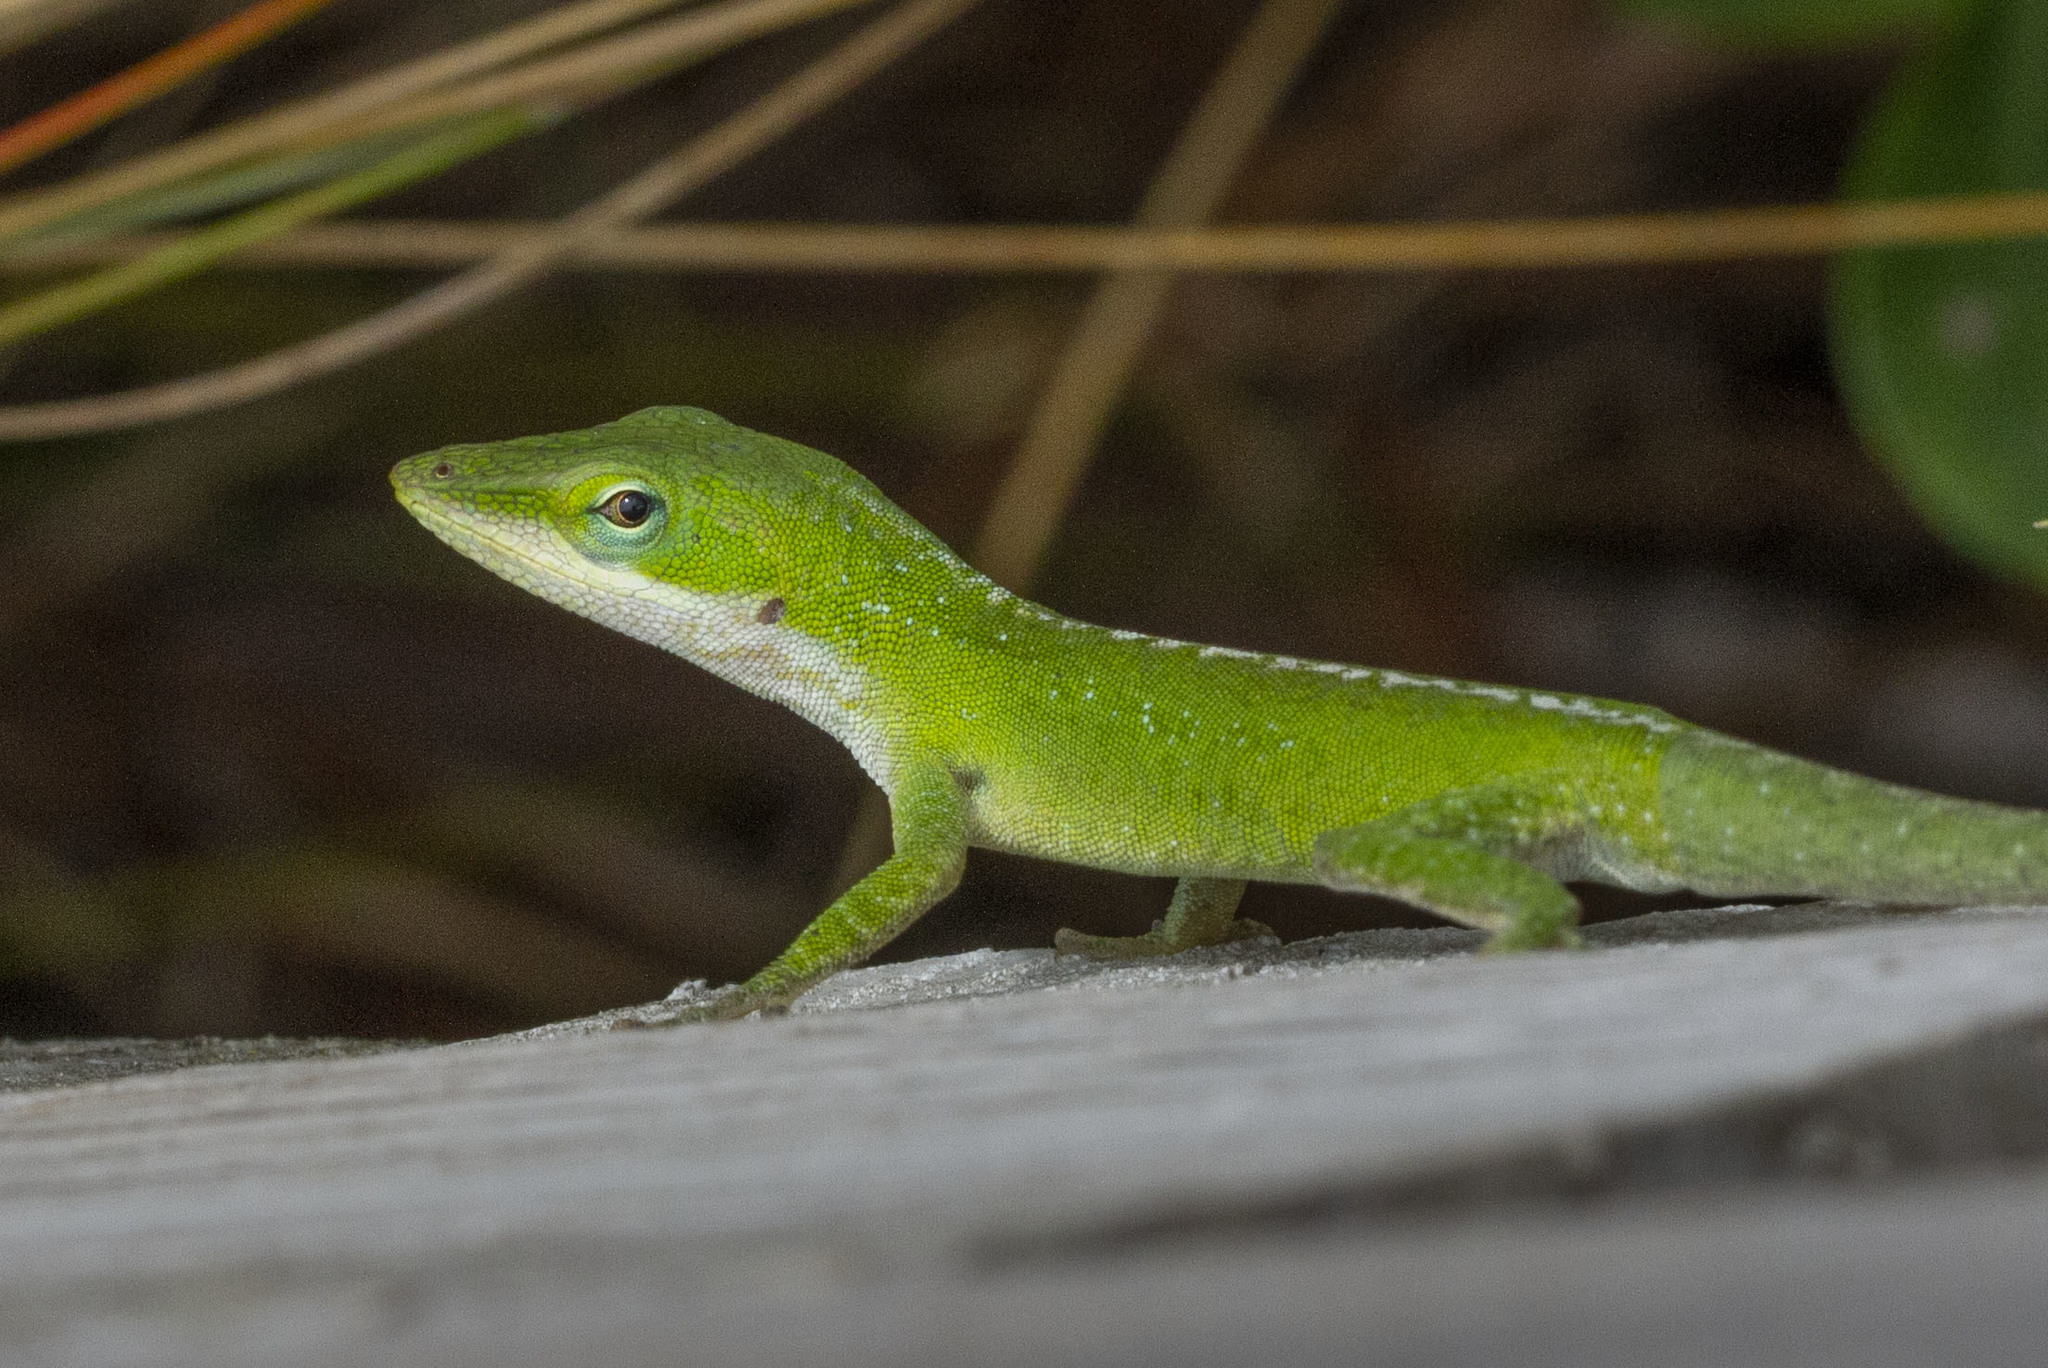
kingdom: Animalia
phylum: Chordata
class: Squamata
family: Dactyloidae
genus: Anolis
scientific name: Anolis carolinensis
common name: Green anole
